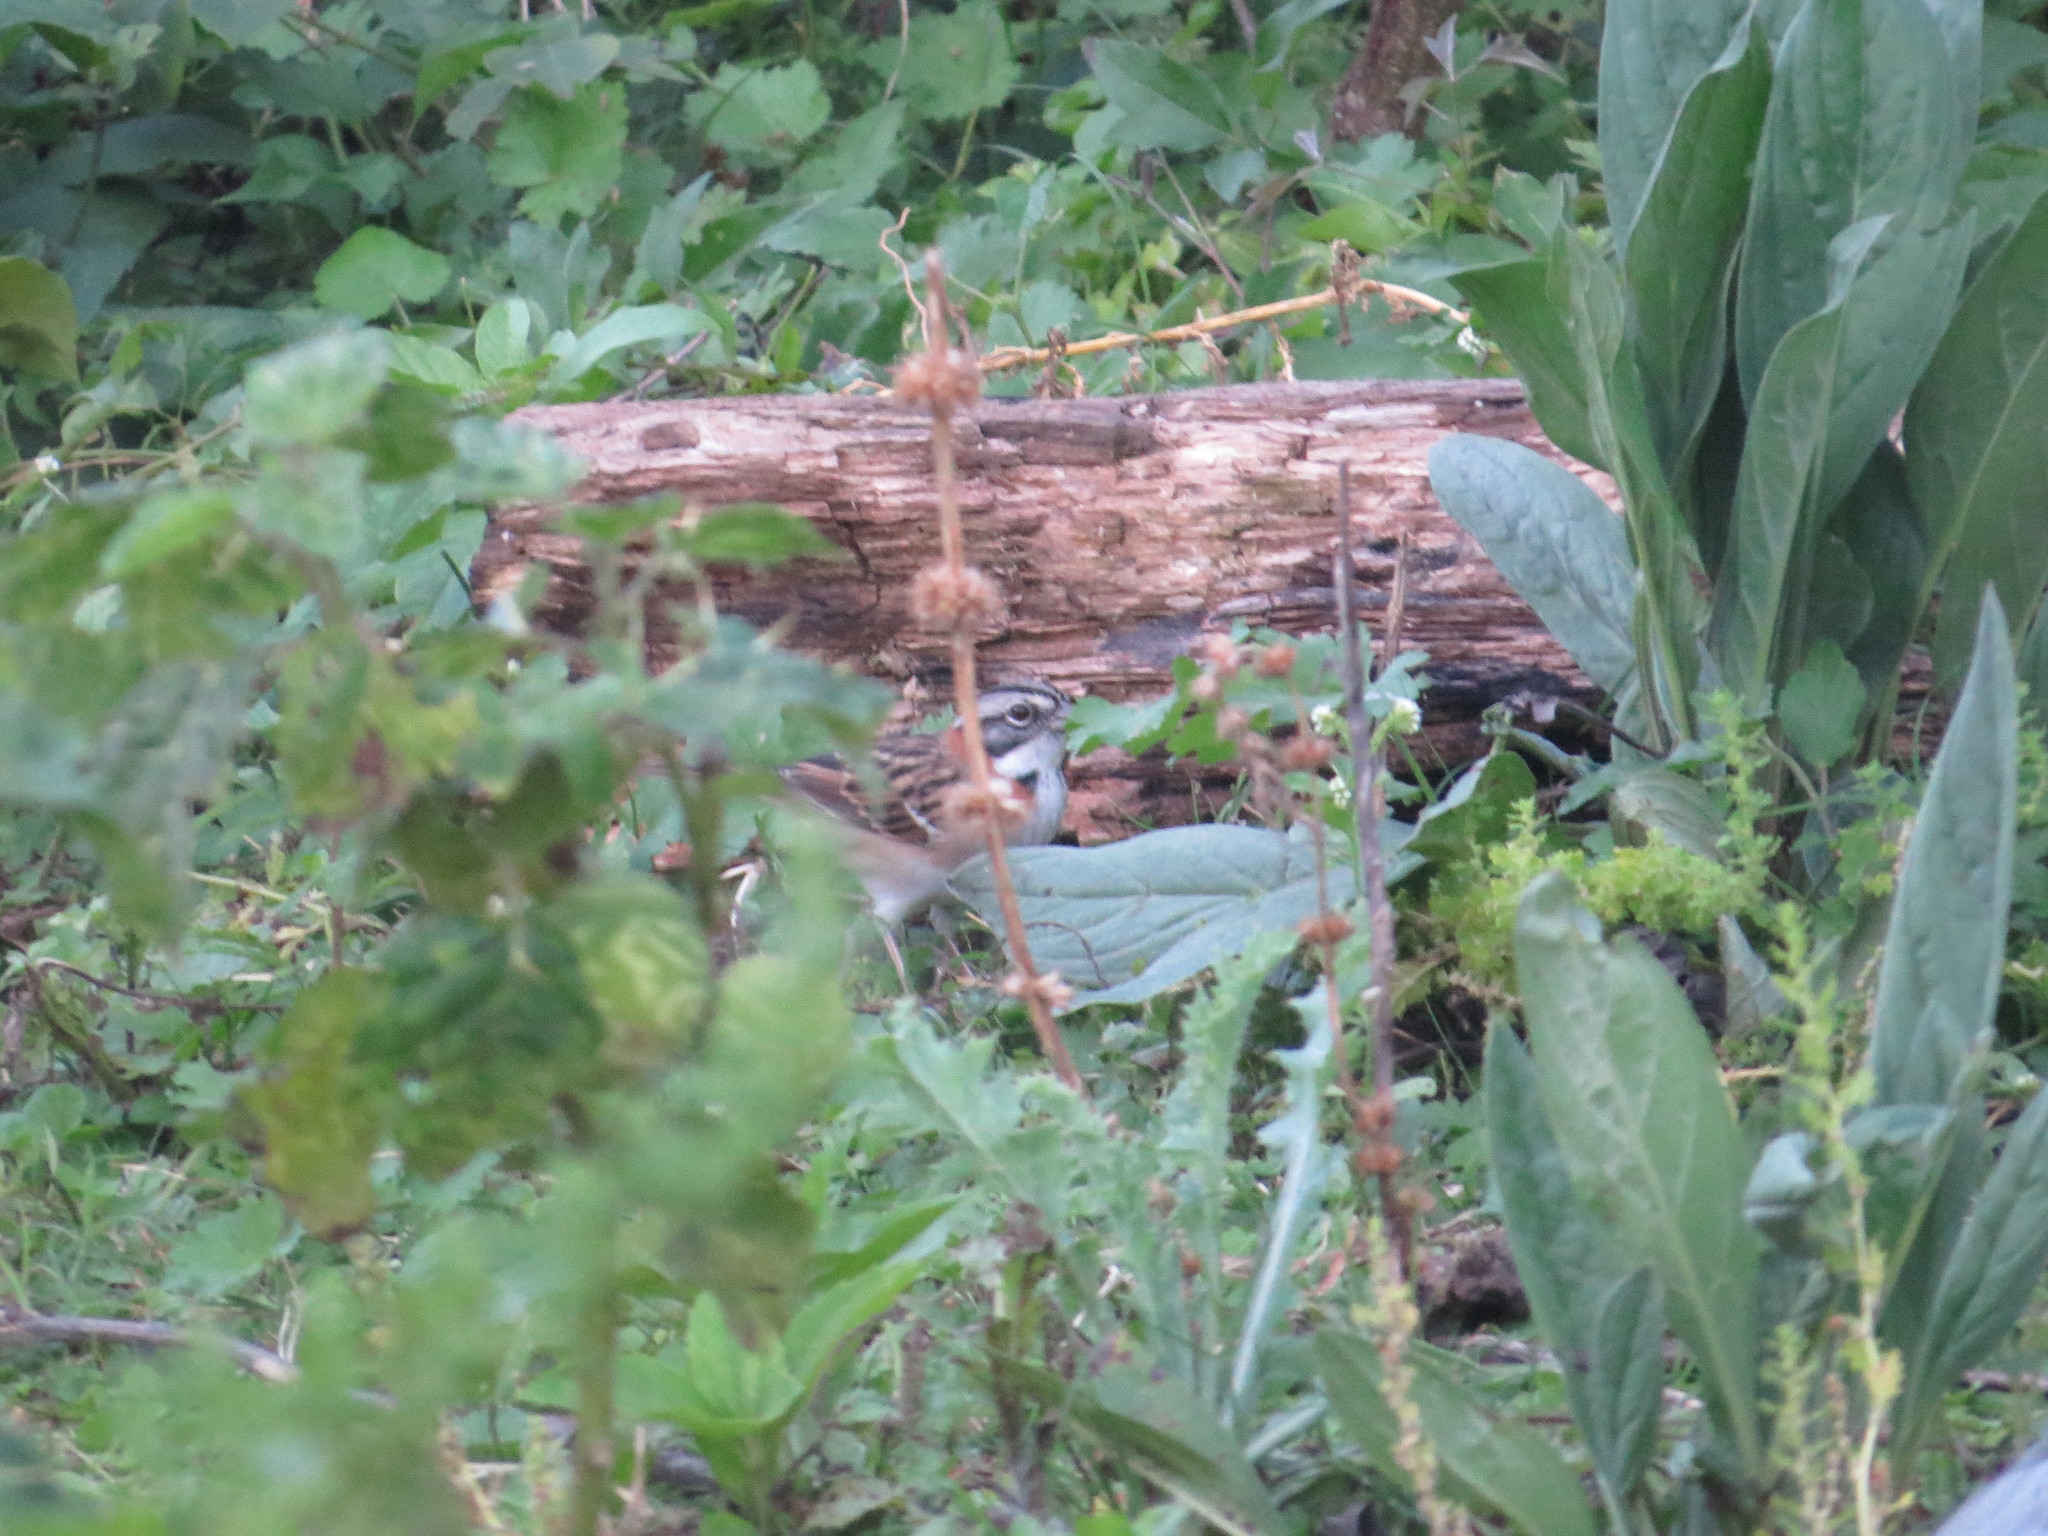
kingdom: Animalia
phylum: Chordata
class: Aves
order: Passeriformes
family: Passerellidae
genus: Zonotrichia
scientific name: Zonotrichia capensis
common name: Rufous-collared sparrow
